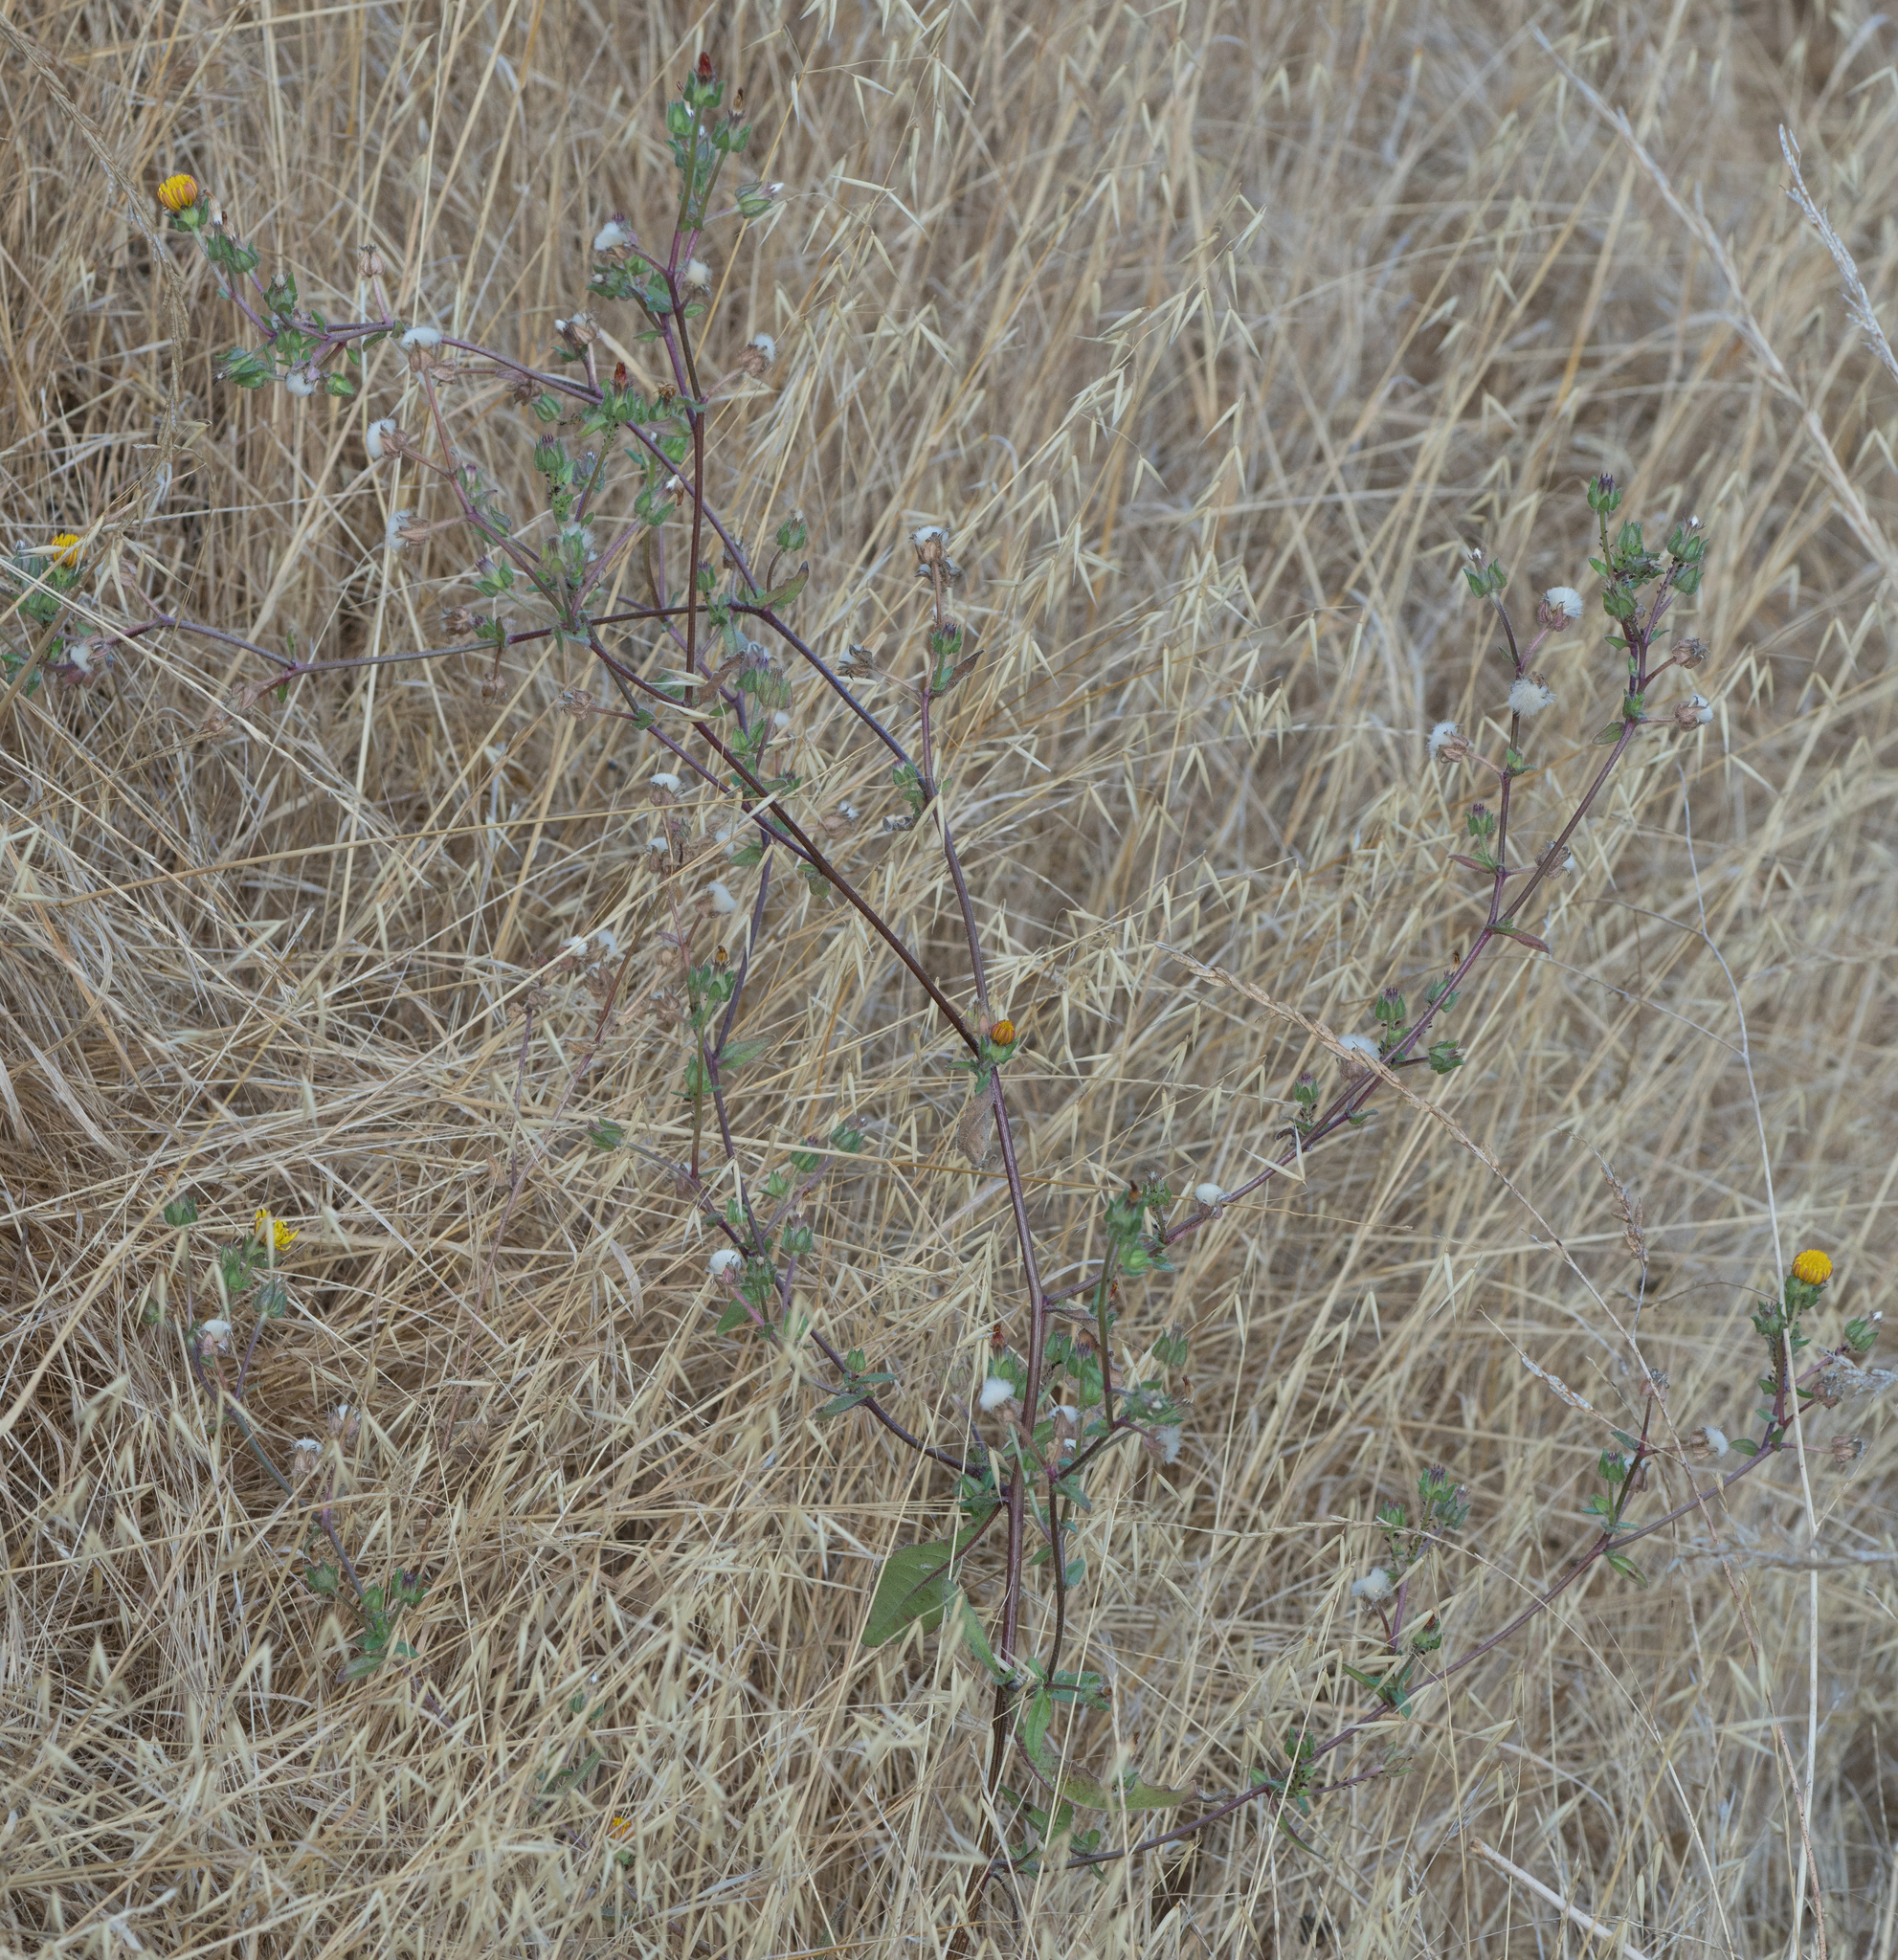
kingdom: Plantae
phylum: Tracheophyta
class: Magnoliopsida
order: Asterales
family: Asteraceae
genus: Helminthotheca
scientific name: Helminthotheca echioides
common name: Ox-tongue
